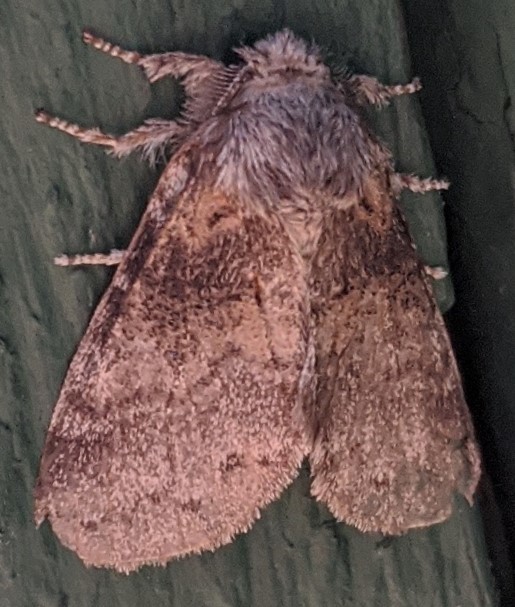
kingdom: Animalia
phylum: Arthropoda
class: Insecta
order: Lepidoptera
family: Notodontidae
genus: Gluphisia
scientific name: Gluphisia septentrionis
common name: Common gluphisia
